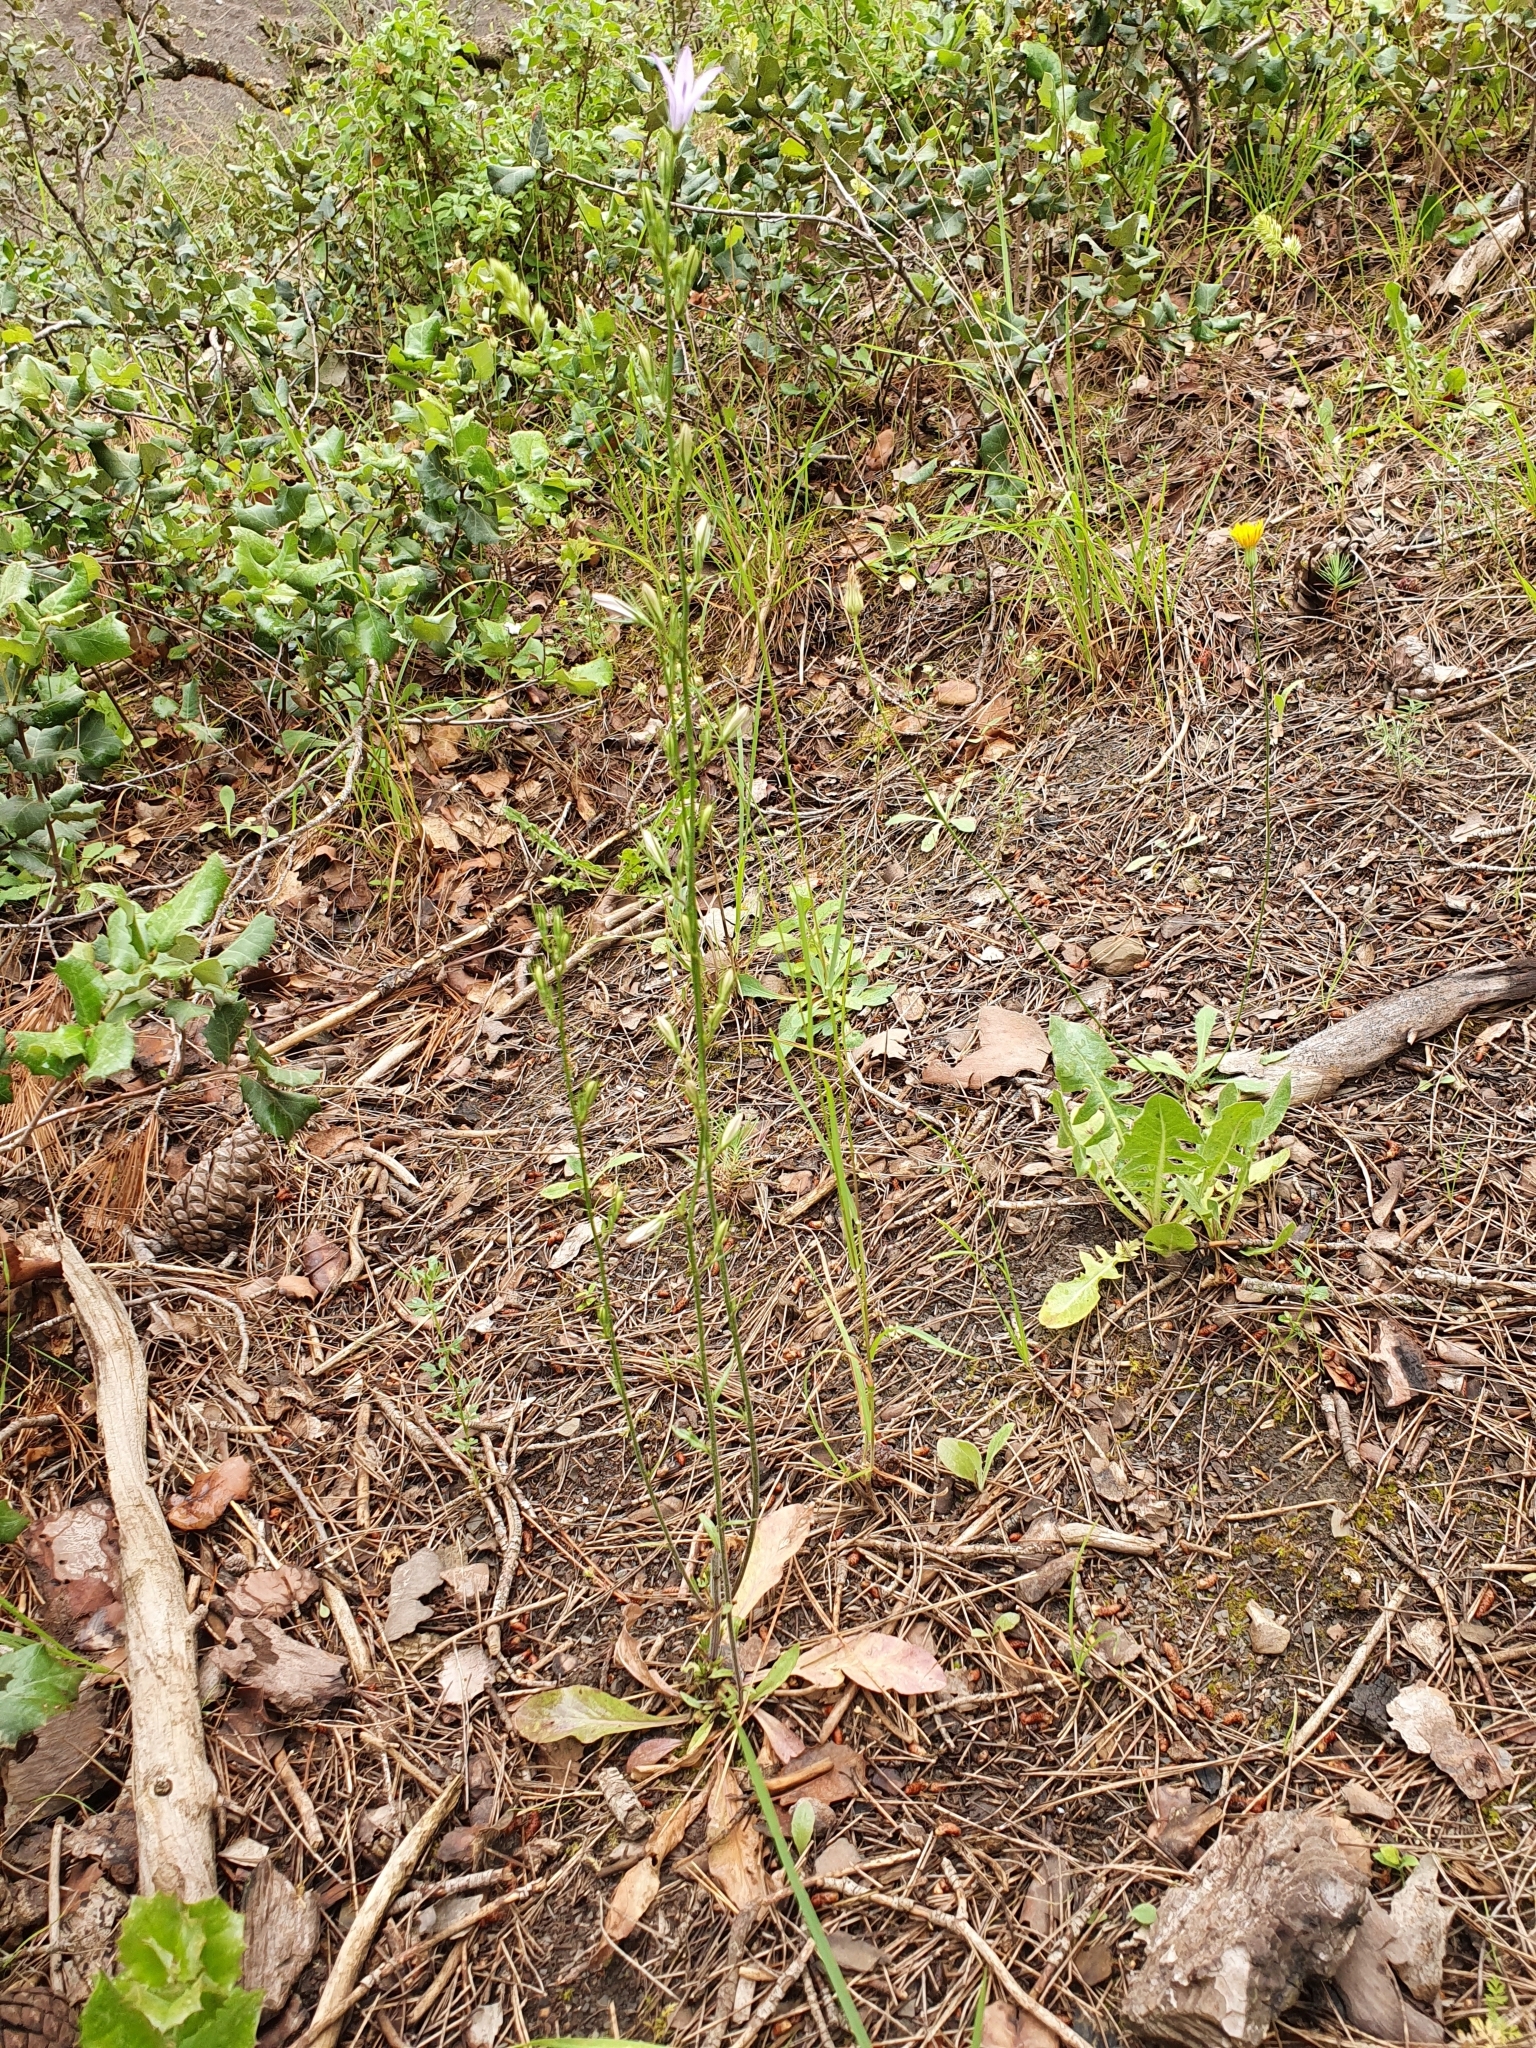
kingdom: Plantae
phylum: Tracheophyta
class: Magnoliopsida
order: Asterales
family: Campanulaceae
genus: Campanula
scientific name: Campanula rapunculus
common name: Rampion bellflower
